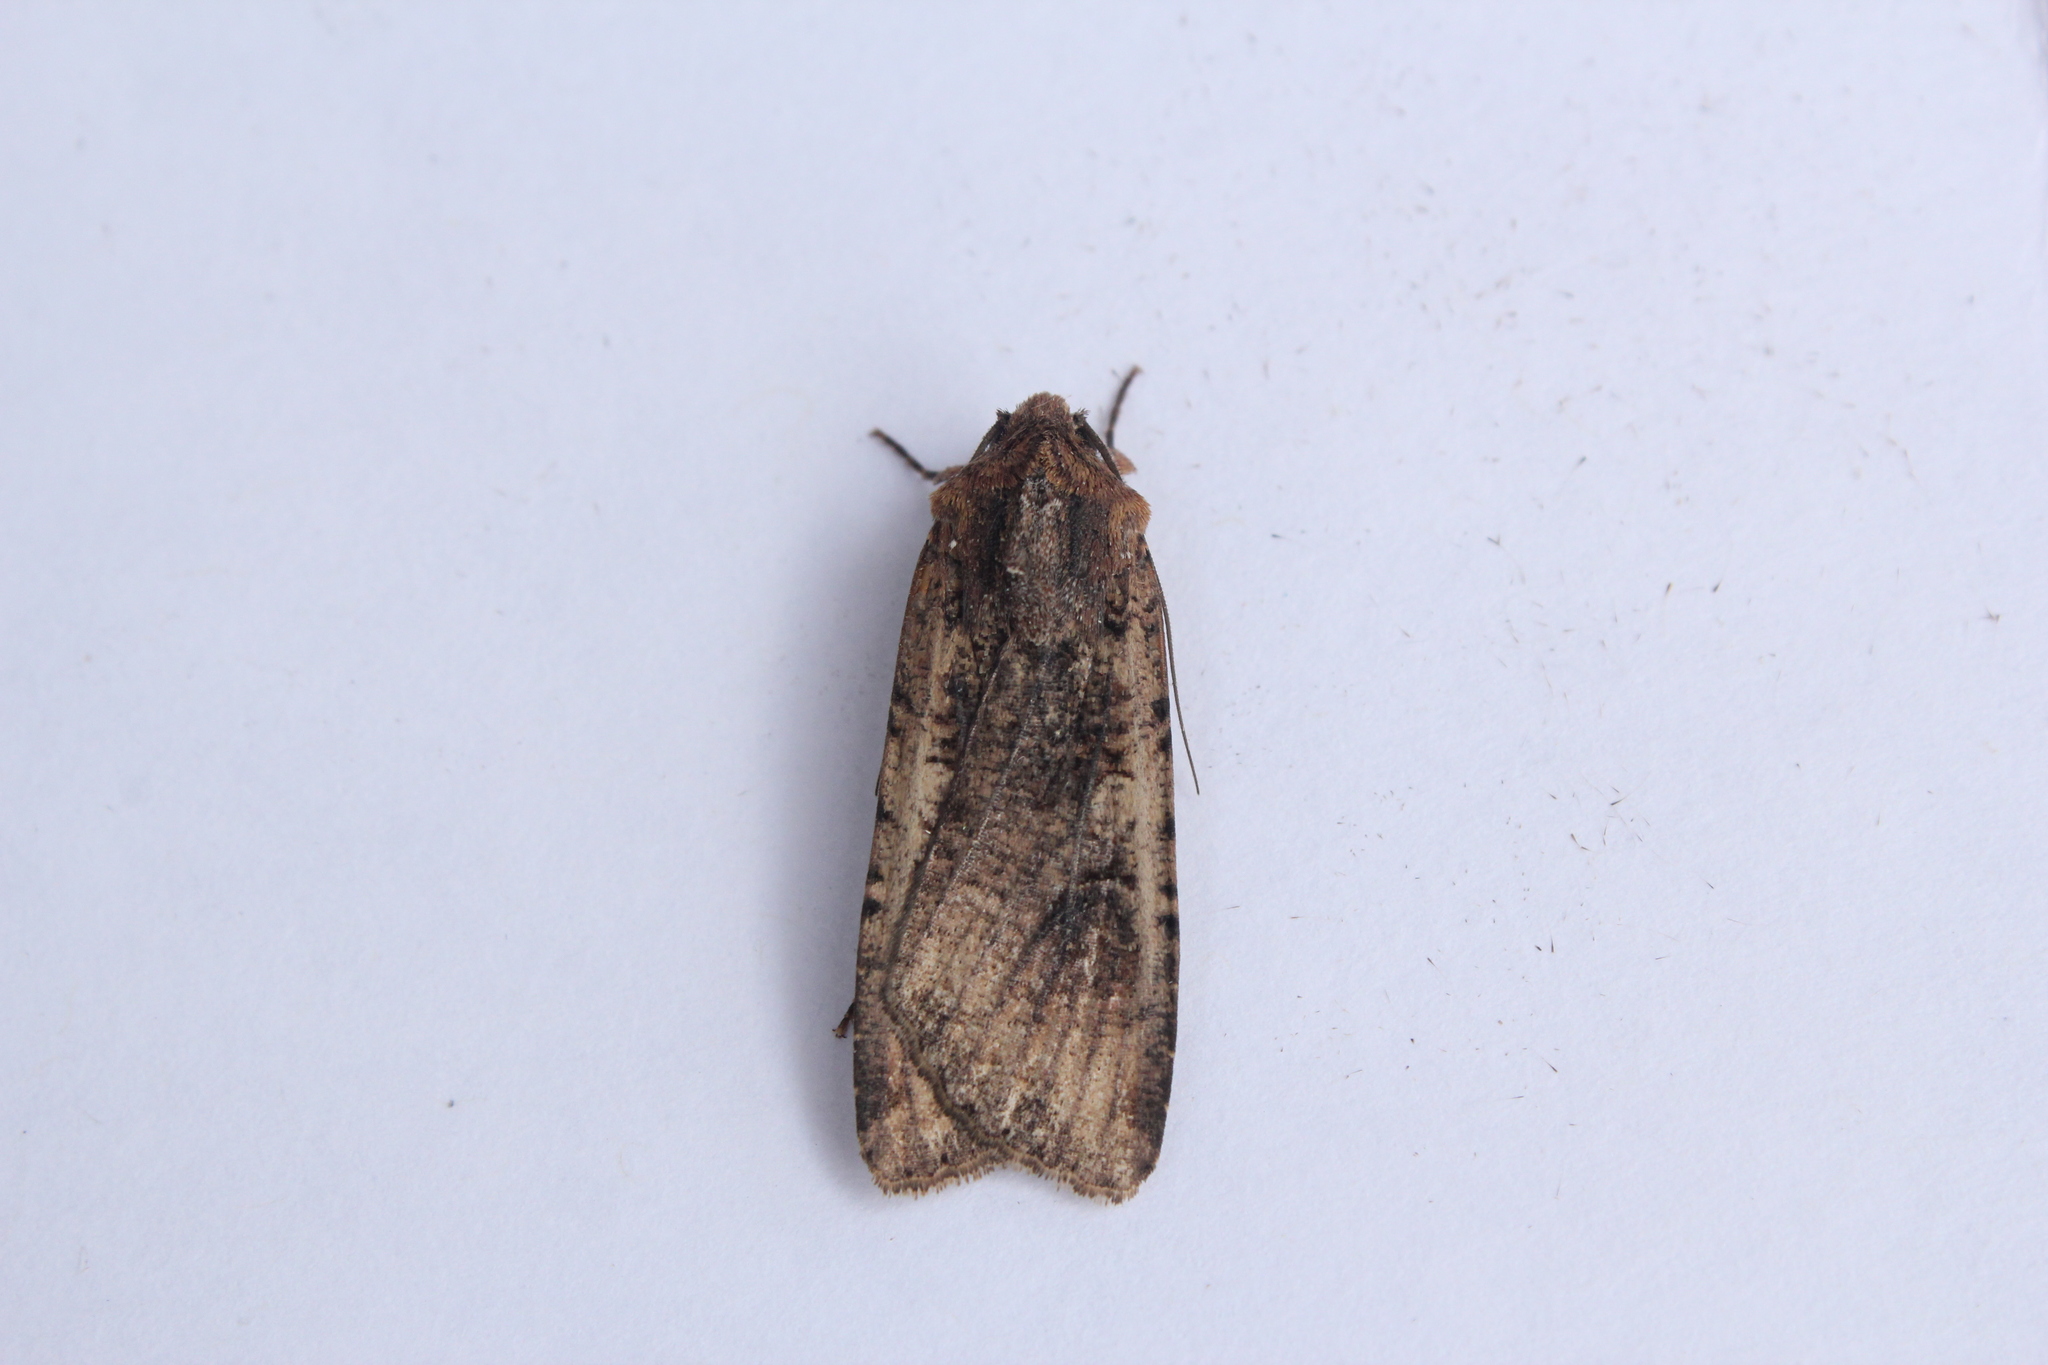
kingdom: Animalia
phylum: Arthropoda
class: Insecta
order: Lepidoptera
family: Noctuidae
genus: Peridroma
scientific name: Peridroma saucia
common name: Pearly underwing
